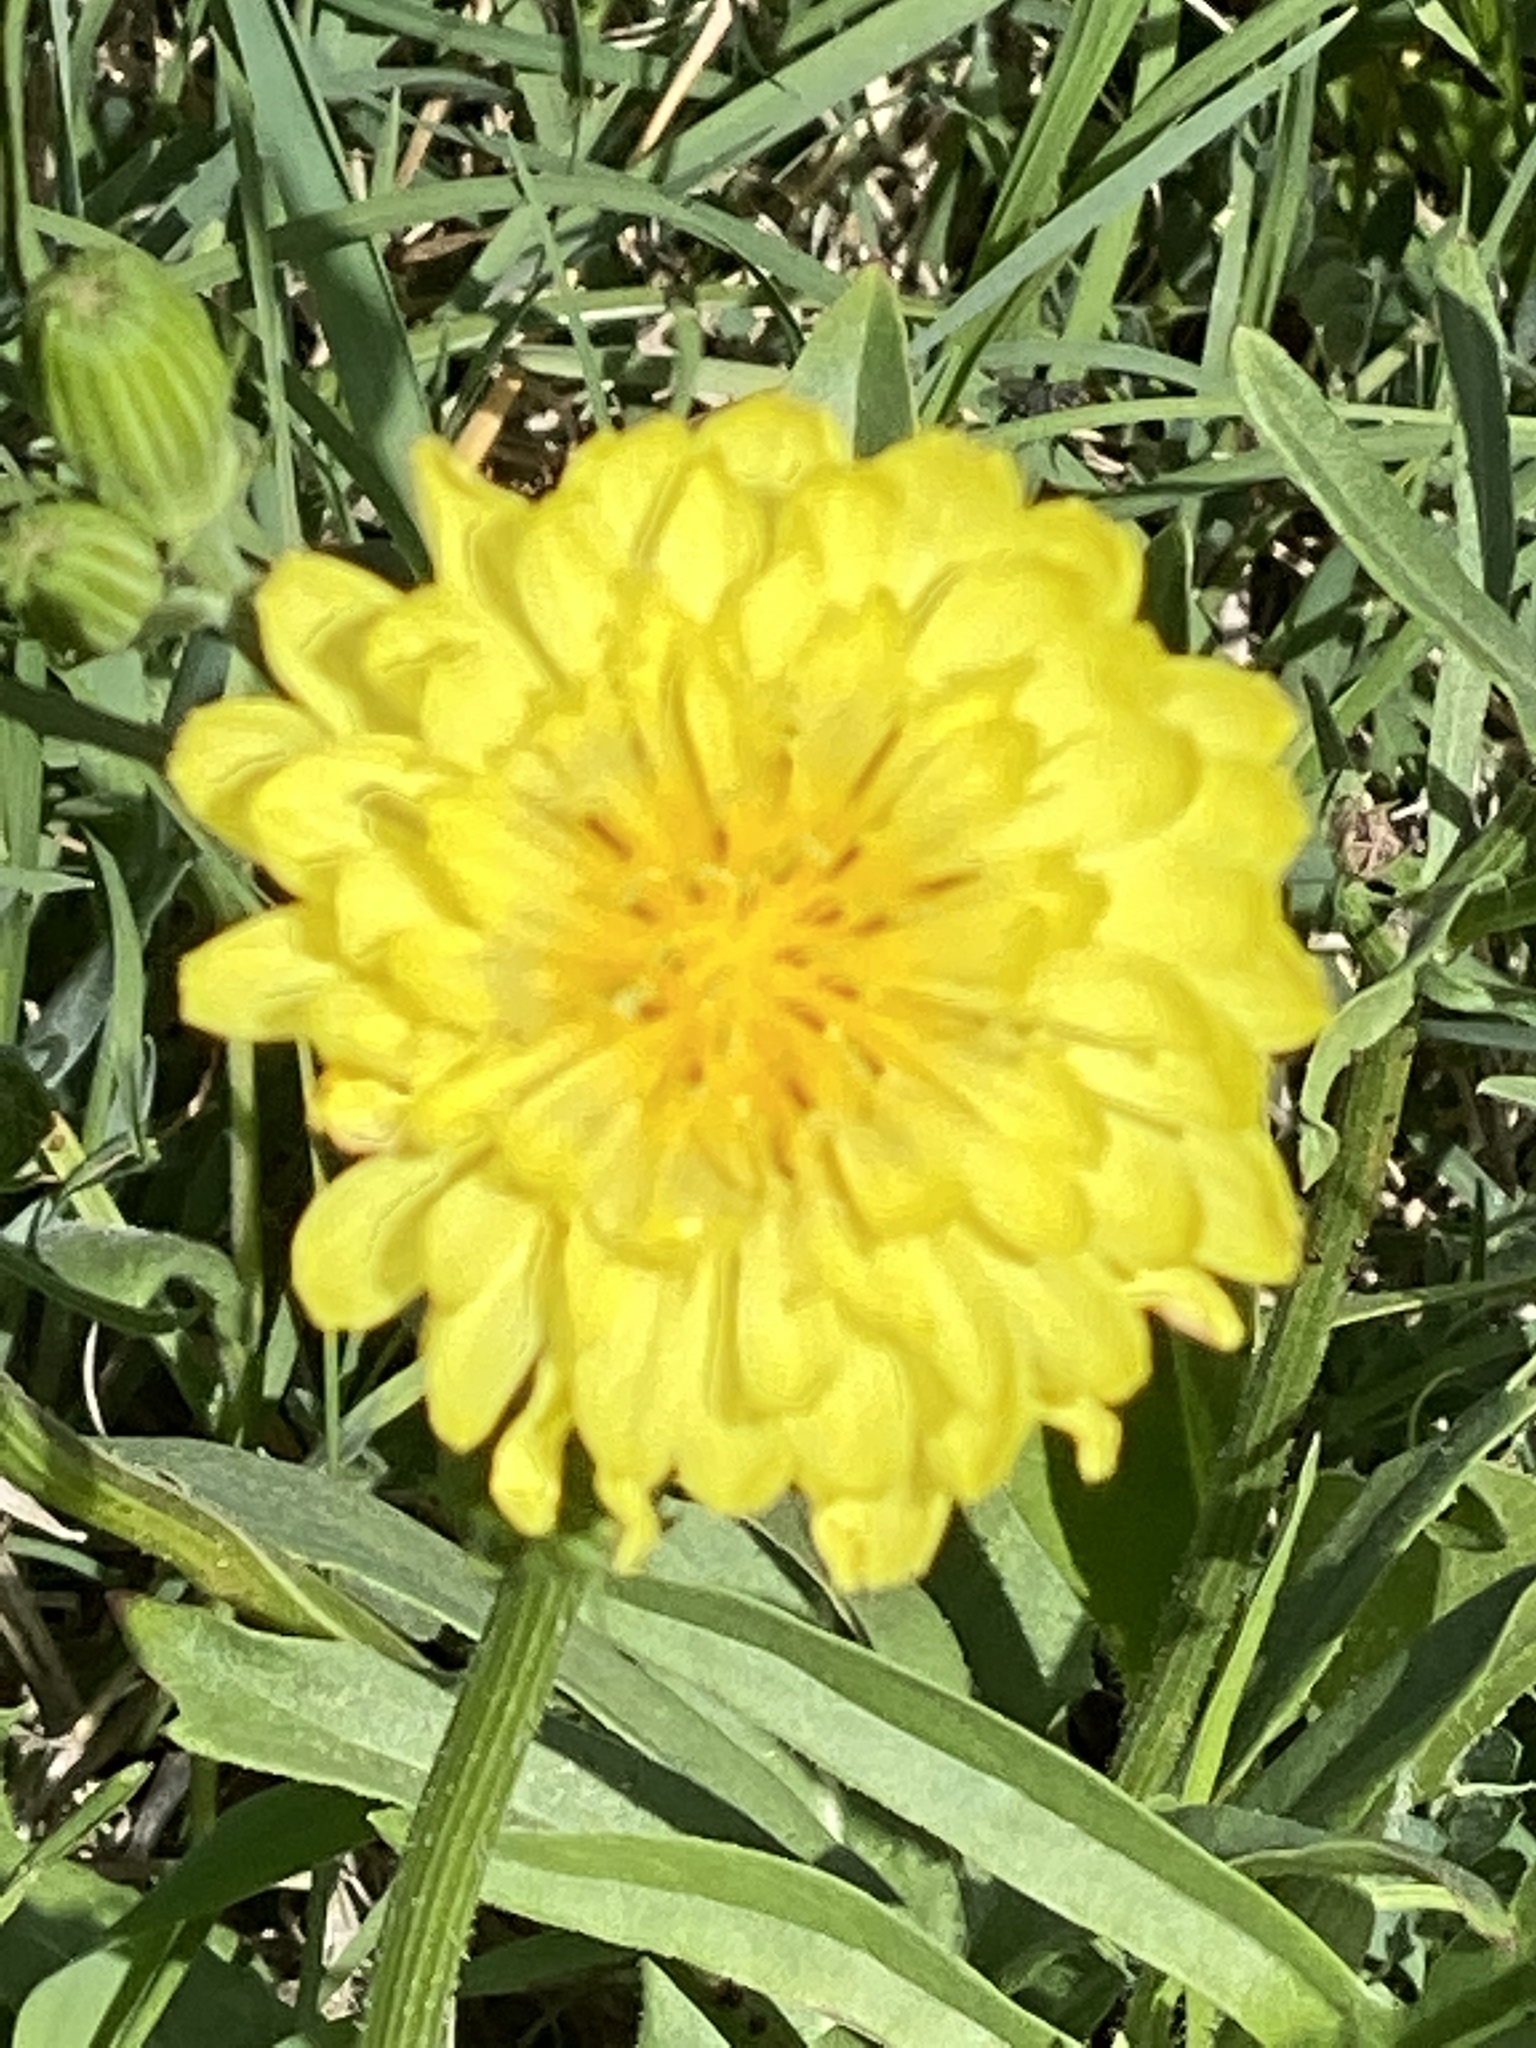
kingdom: Plantae
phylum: Tracheophyta
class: Magnoliopsida
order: Asterales
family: Asteraceae
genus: Pyrrhopappus
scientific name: Pyrrhopappus pauciflorus
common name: Texas false dandelion
